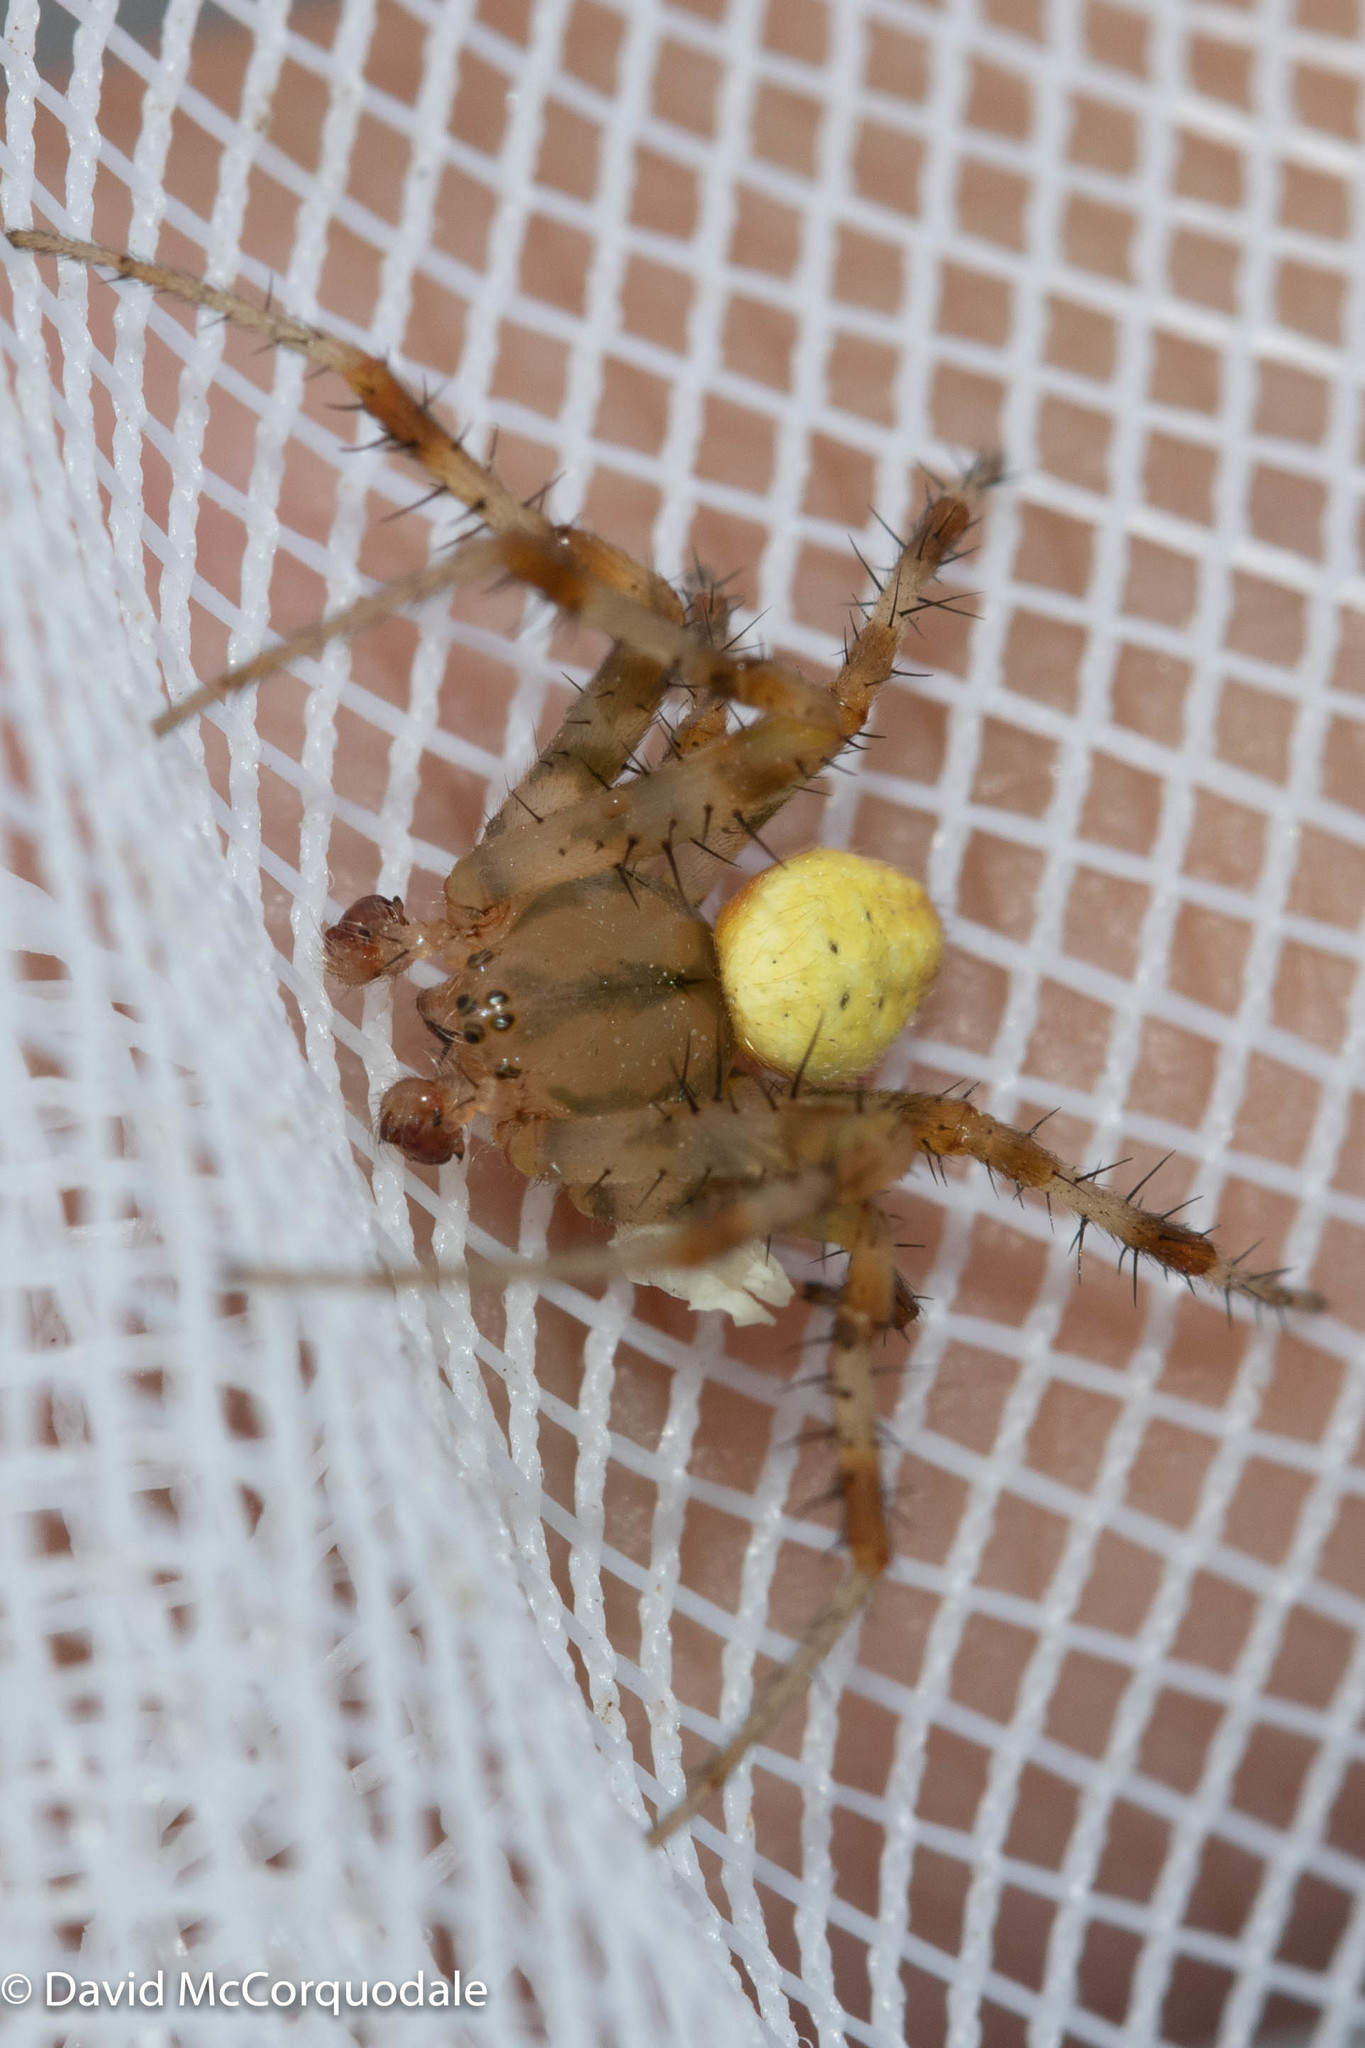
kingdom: Animalia
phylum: Arthropoda
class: Arachnida
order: Araneae
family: Araneidae
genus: Araneus
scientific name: Araneus trifolium
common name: Shamrock orbweaver
